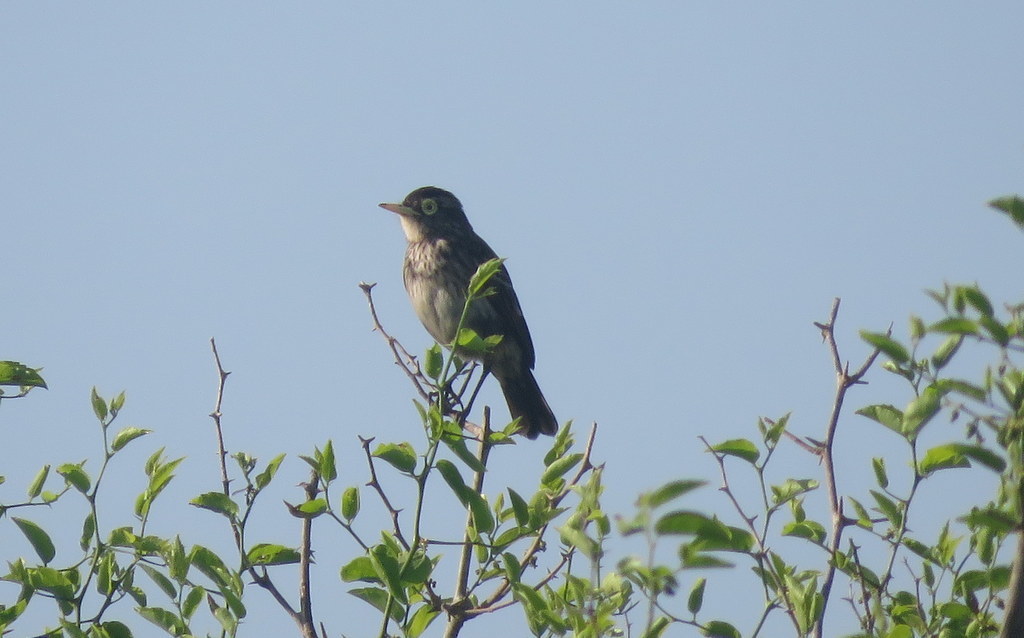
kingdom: Animalia
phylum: Chordata
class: Aves
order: Passeriformes
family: Tyrannidae
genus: Hymenops
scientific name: Hymenops perspicillatus
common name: Spectacled tyrant
